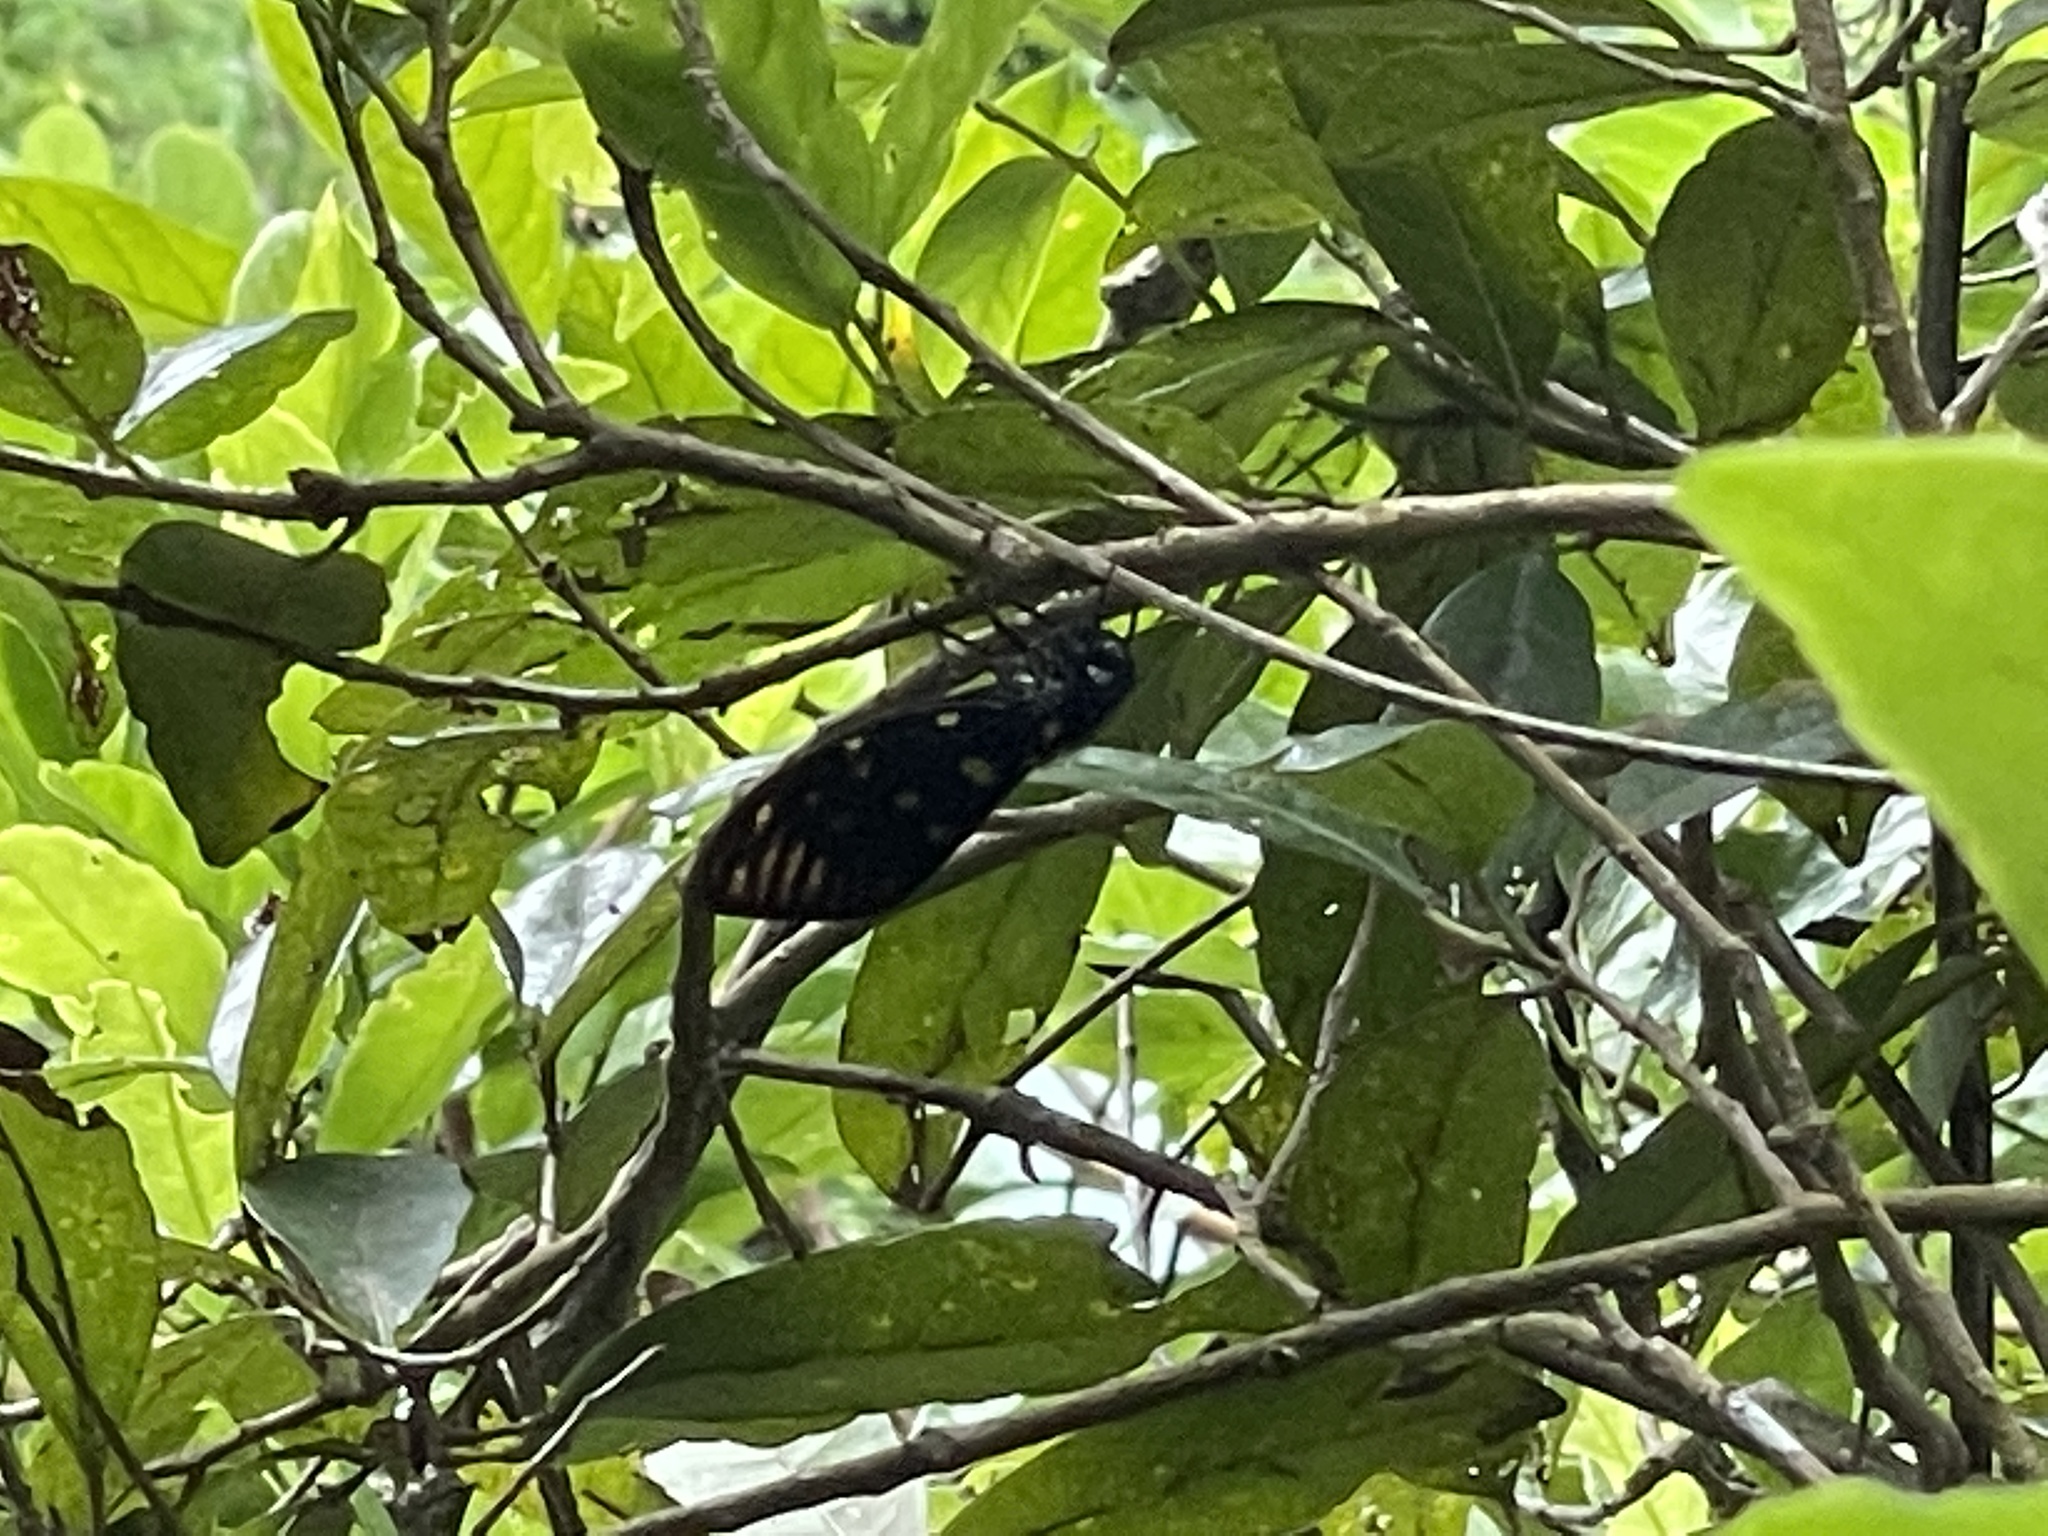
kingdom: Animalia
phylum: Arthropoda
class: Insecta
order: Hemiptera
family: Cicadidae
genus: Gaeana
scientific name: Gaeana maculata
